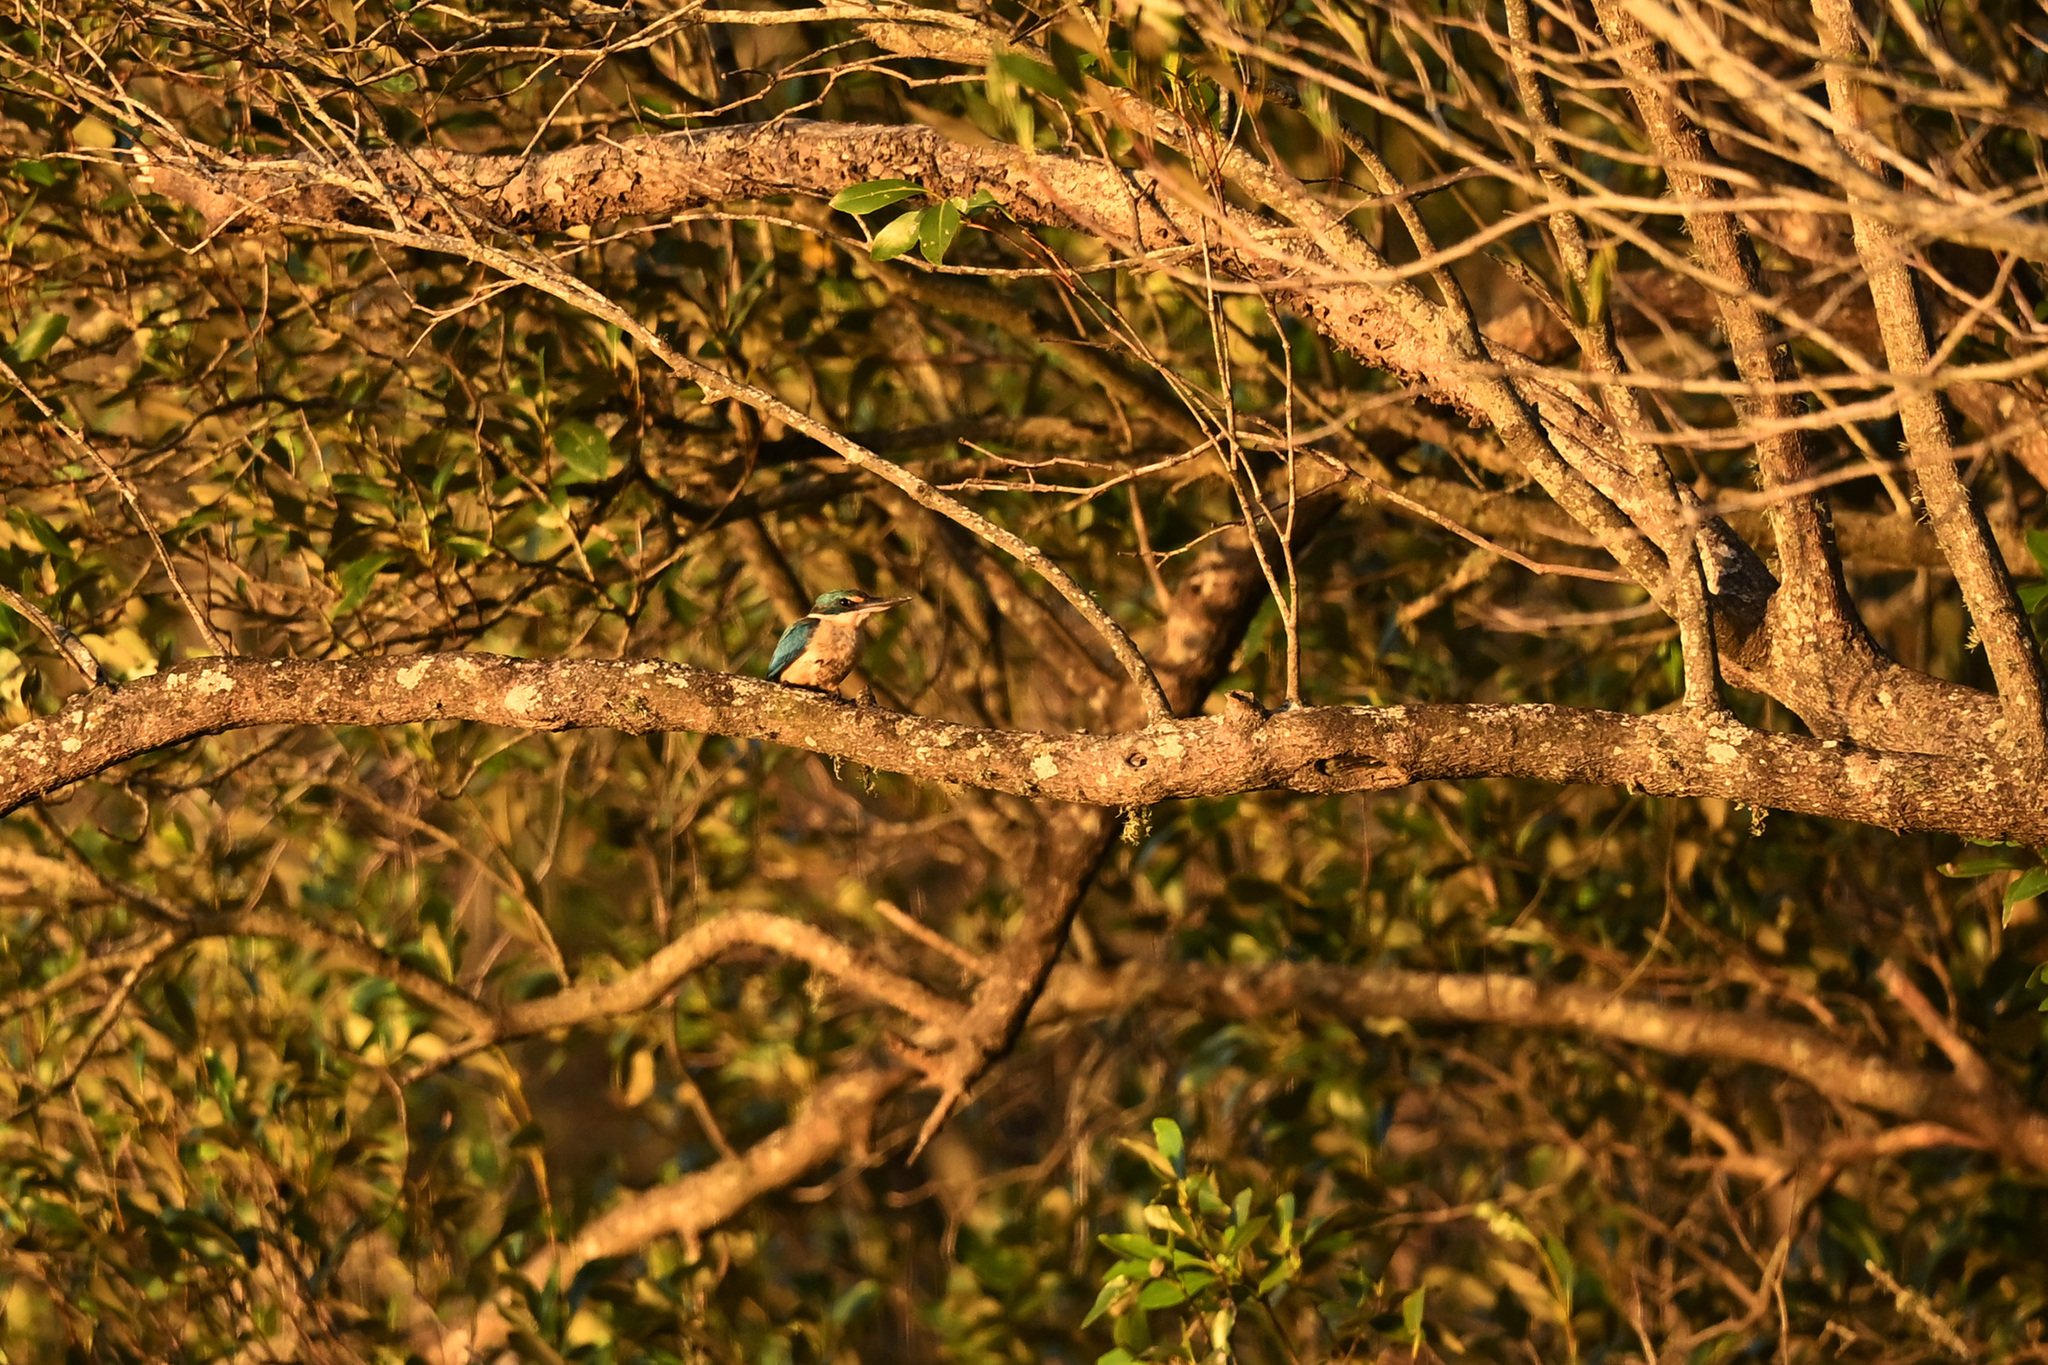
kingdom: Animalia
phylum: Chordata
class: Aves
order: Coraciiformes
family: Alcedinidae
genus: Todiramphus
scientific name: Todiramphus sanctus
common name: Sacred kingfisher
